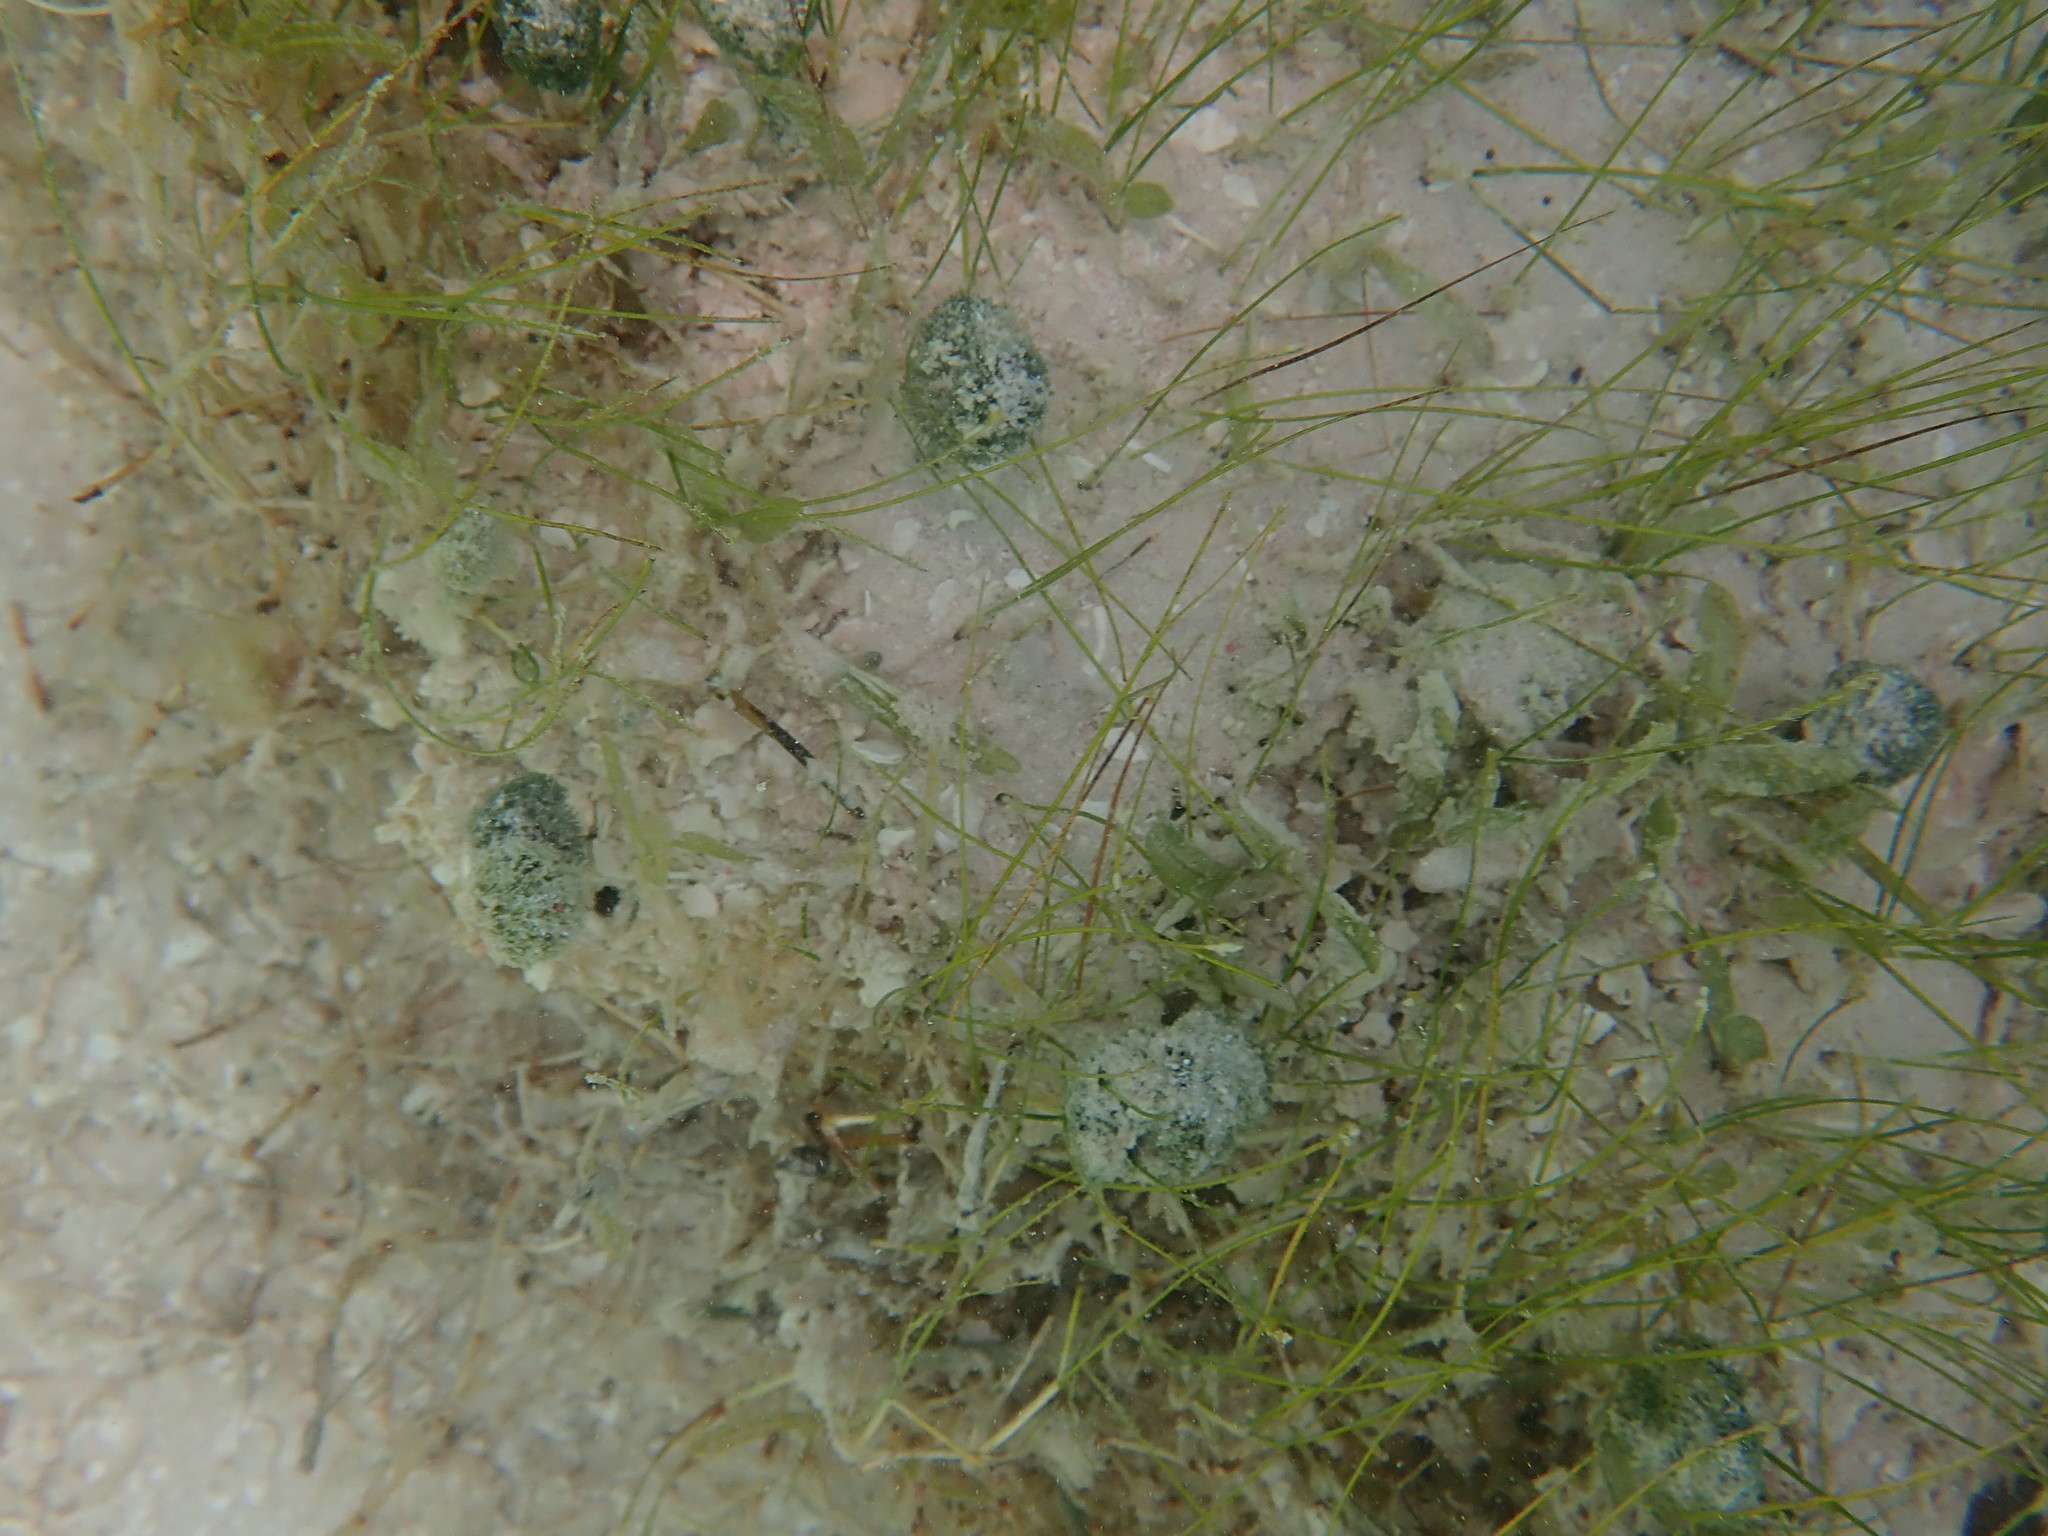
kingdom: Plantae
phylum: Tracheophyta
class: Liliopsida
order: Alismatales
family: Cymodoceaceae
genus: Syringodium
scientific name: Syringodium filiforme
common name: Manatee grass
